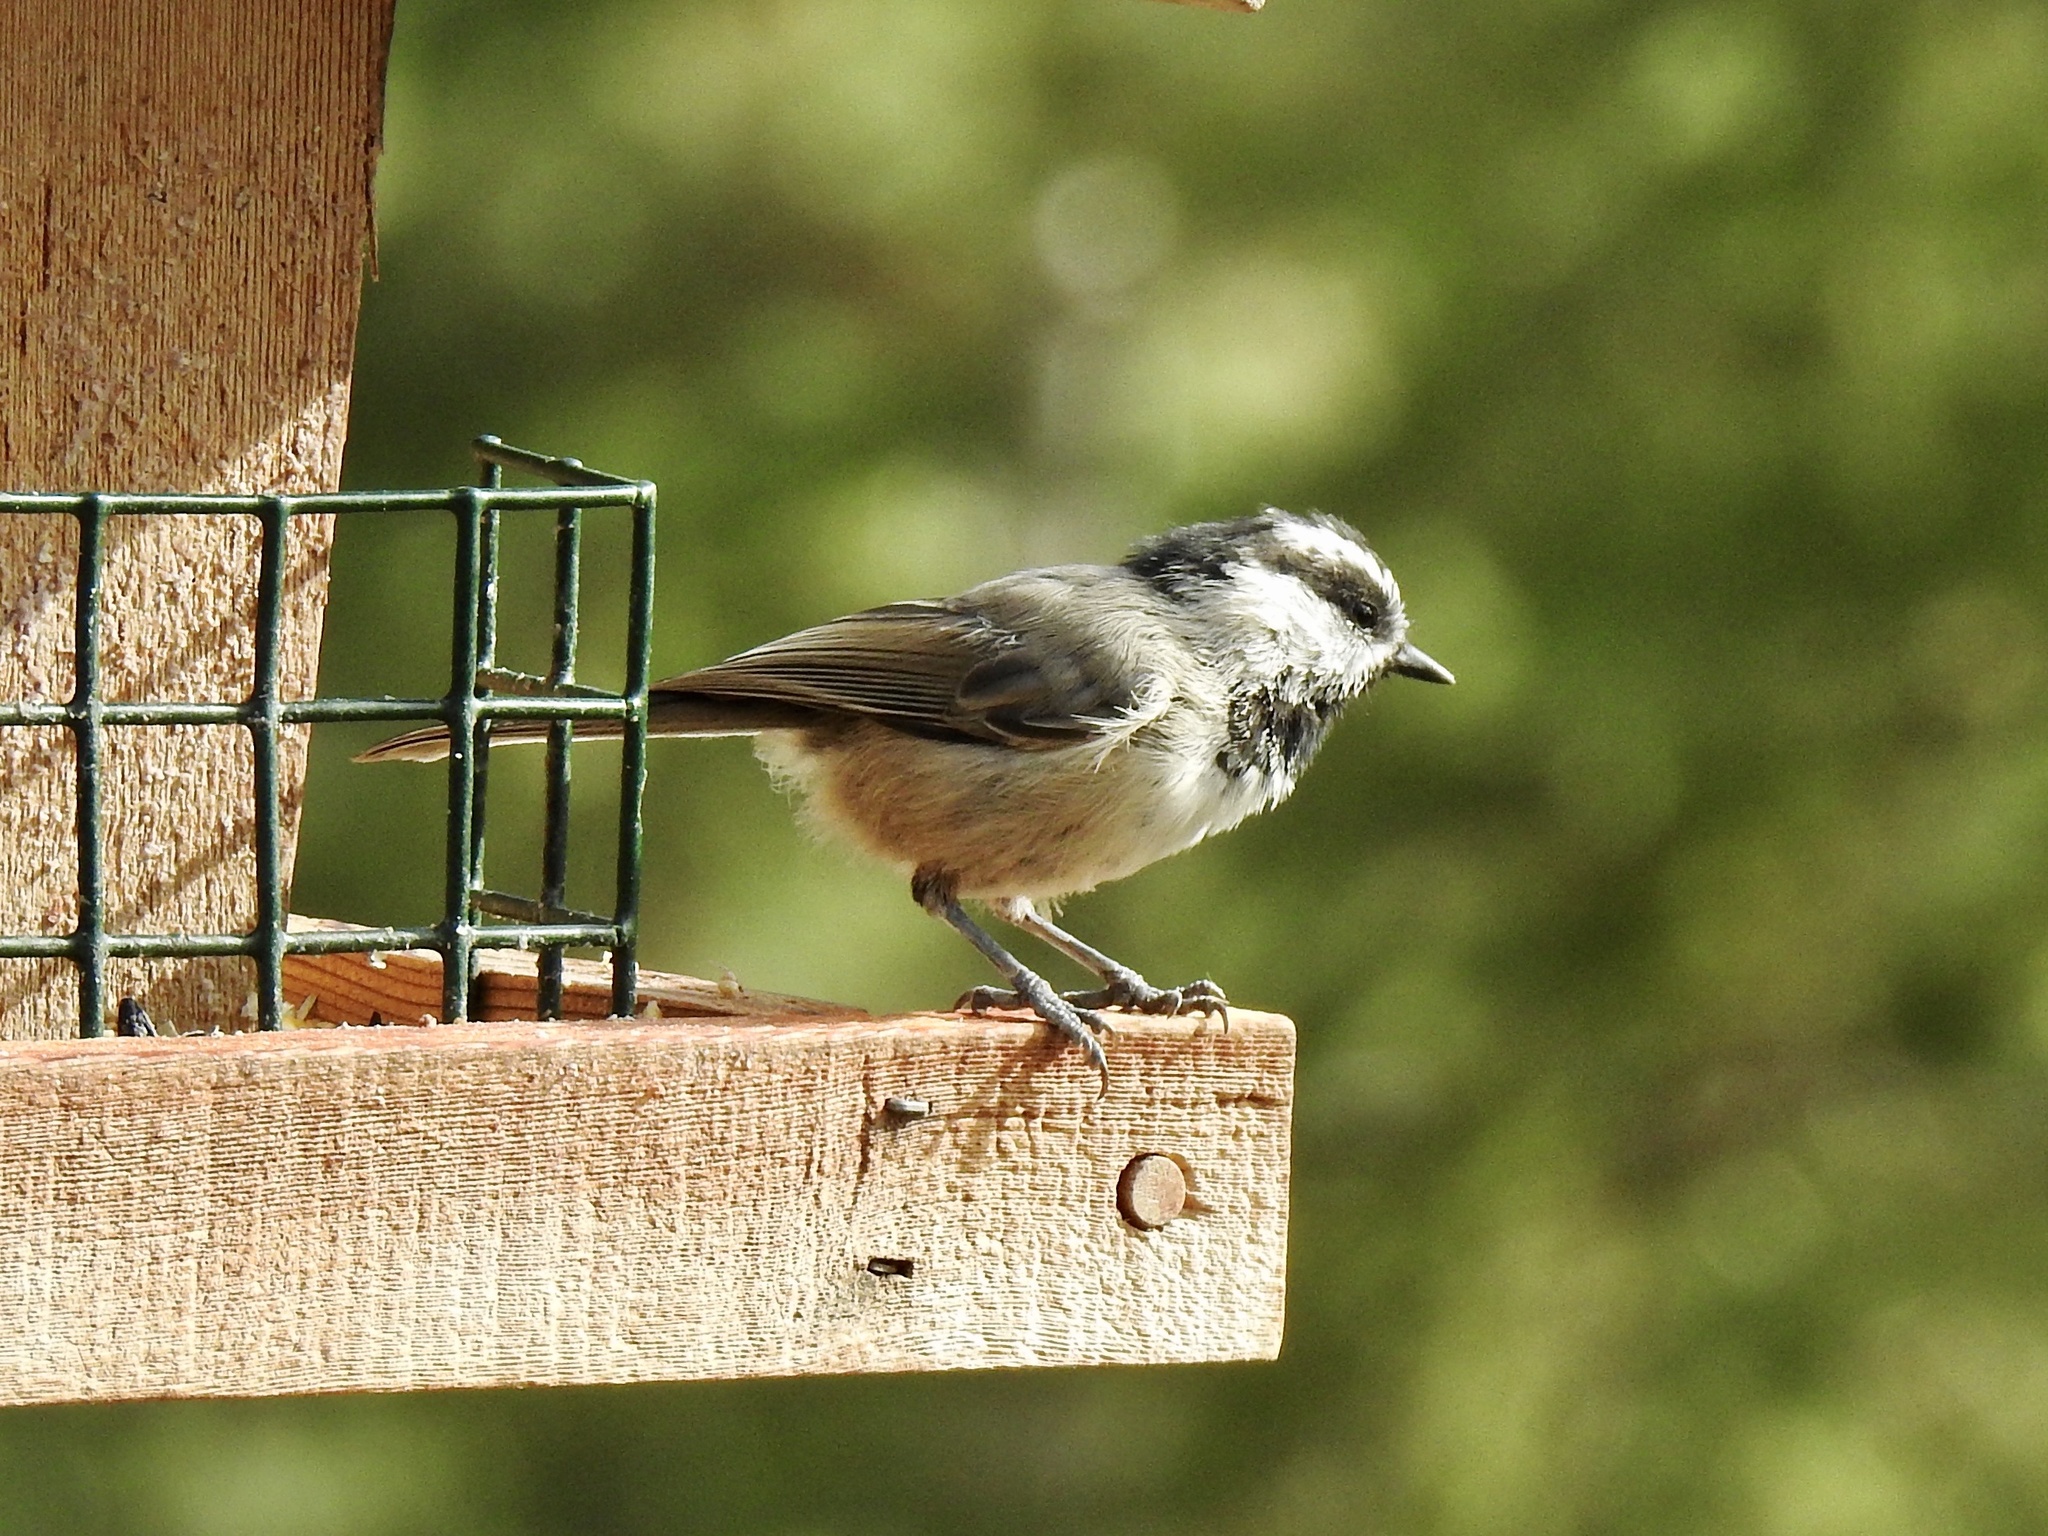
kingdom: Animalia
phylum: Chordata
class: Aves
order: Passeriformes
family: Paridae
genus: Poecile
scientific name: Poecile gambeli
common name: Mountain chickadee
